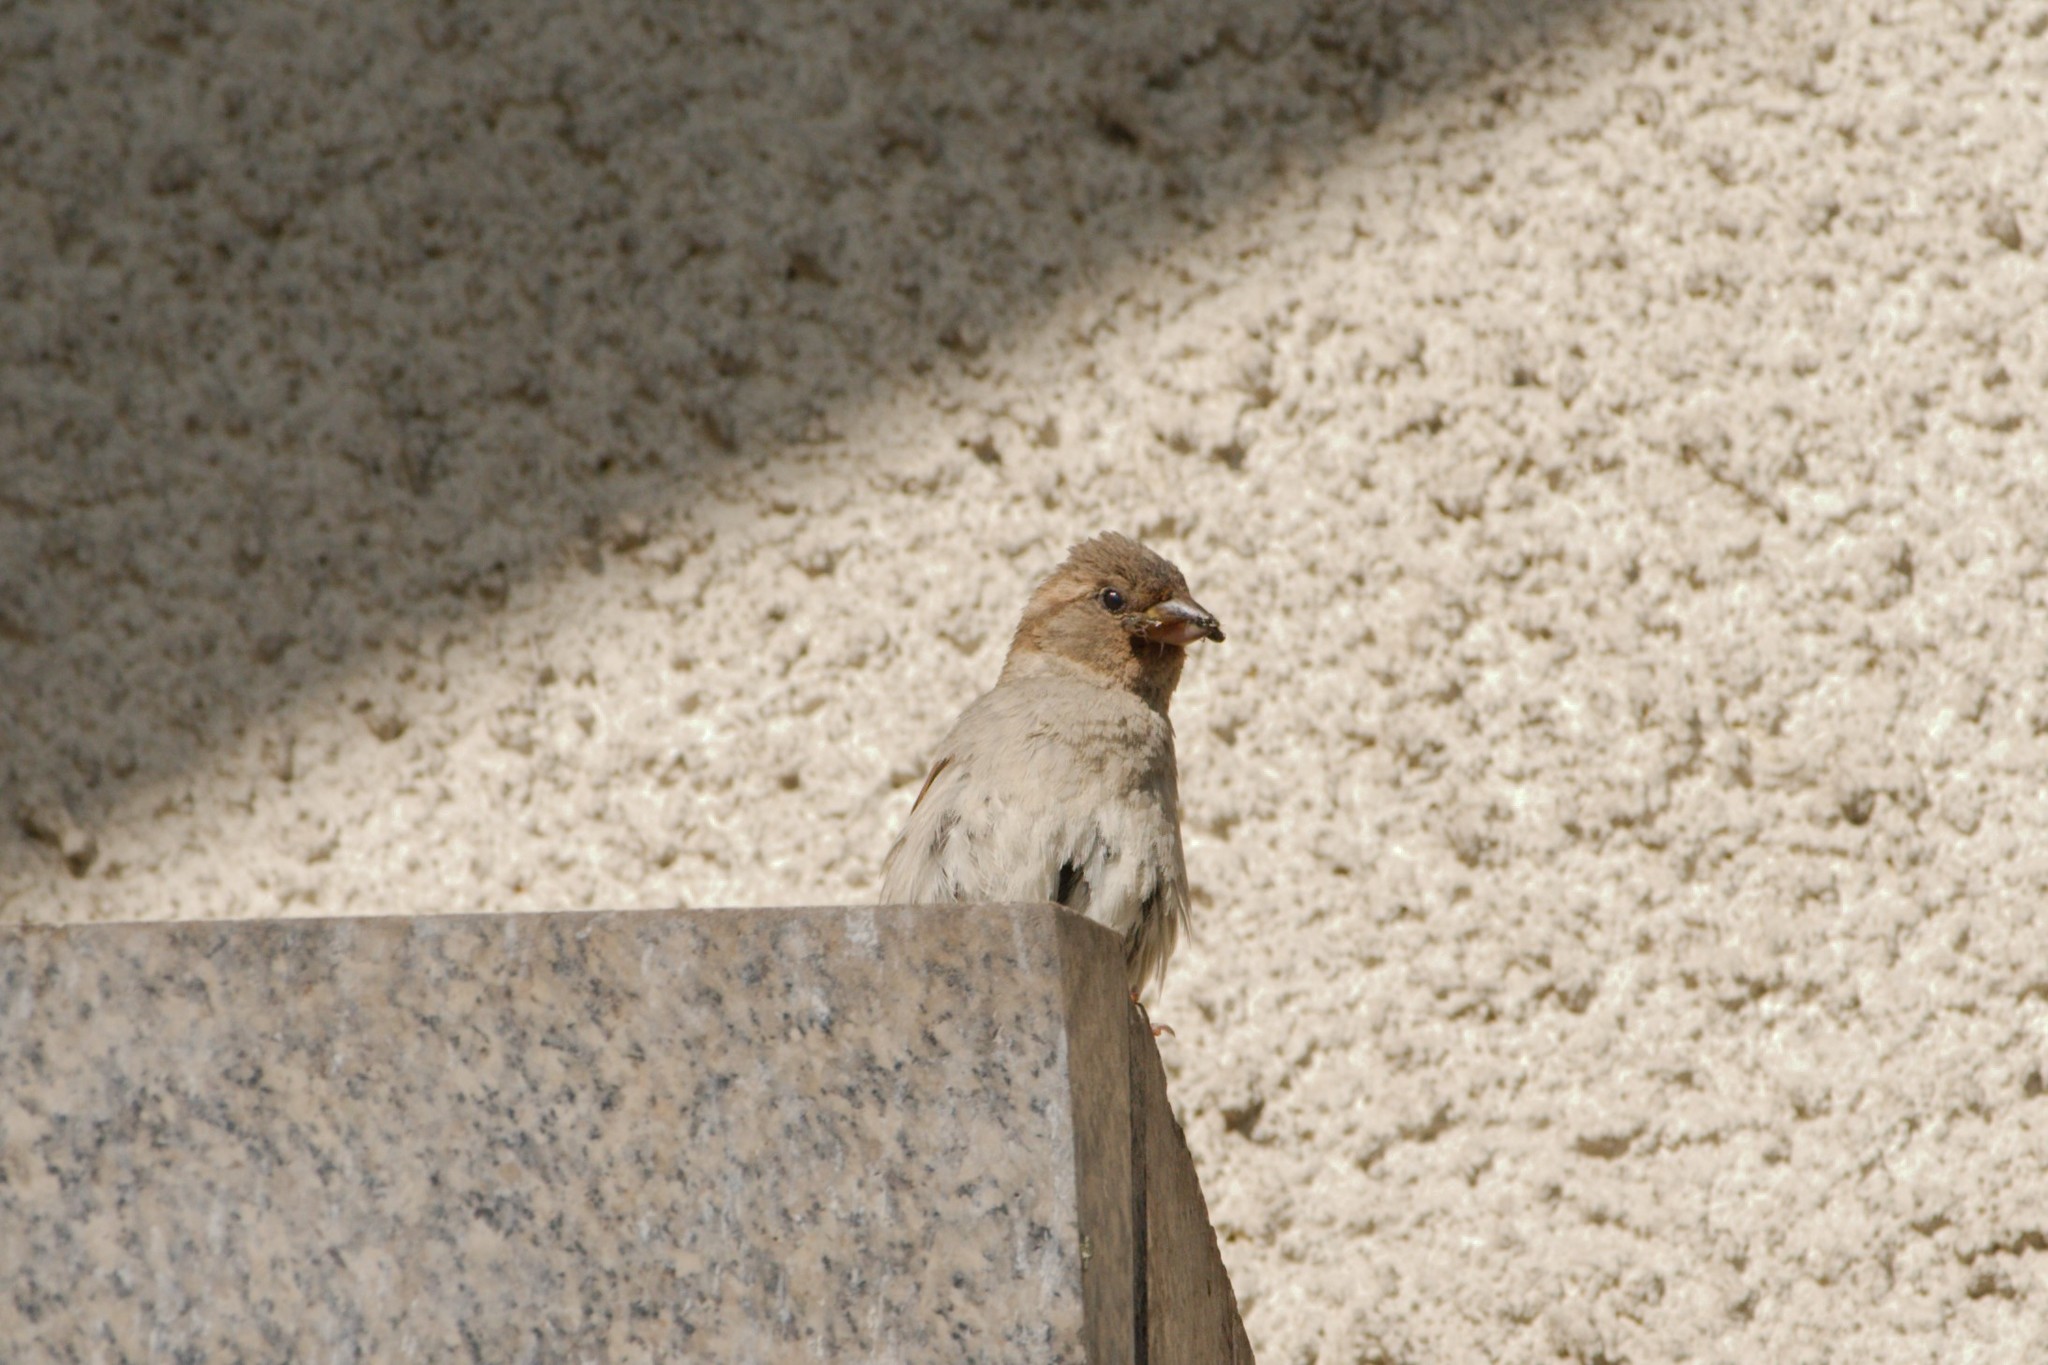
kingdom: Animalia
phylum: Chordata
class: Aves
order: Passeriformes
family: Passeridae
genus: Passer
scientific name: Passer domesticus
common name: House sparrow
